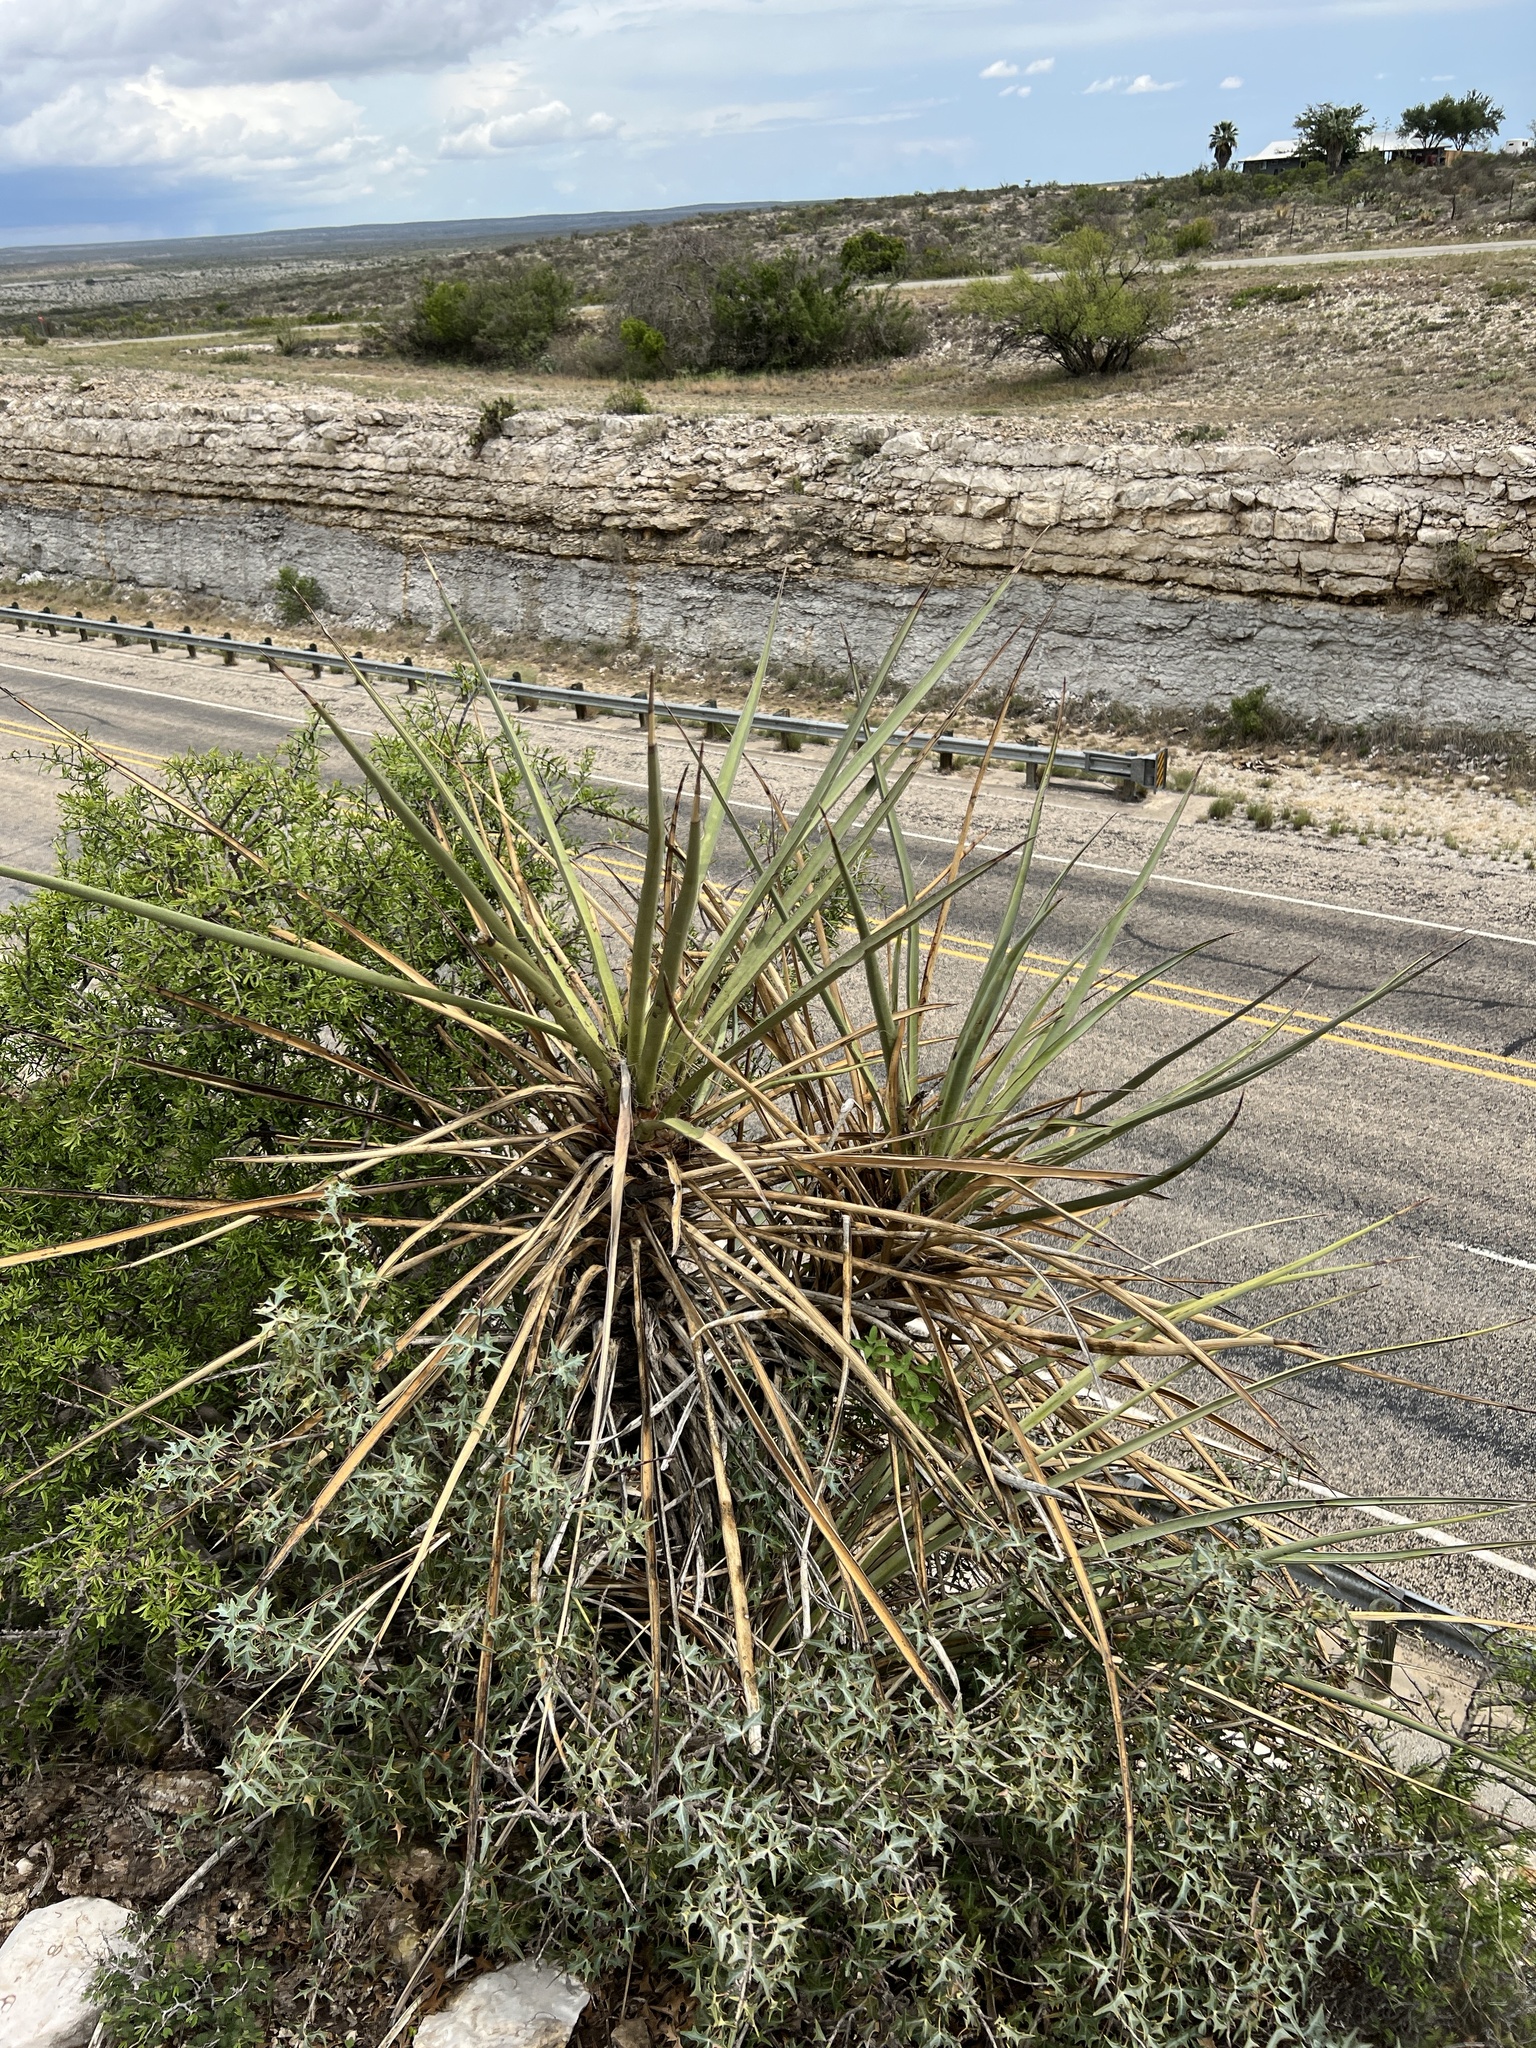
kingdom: Plantae
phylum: Tracheophyta
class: Liliopsida
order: Asparagales
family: Asparagaceae
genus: Yucca
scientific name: Yucca treculiana
